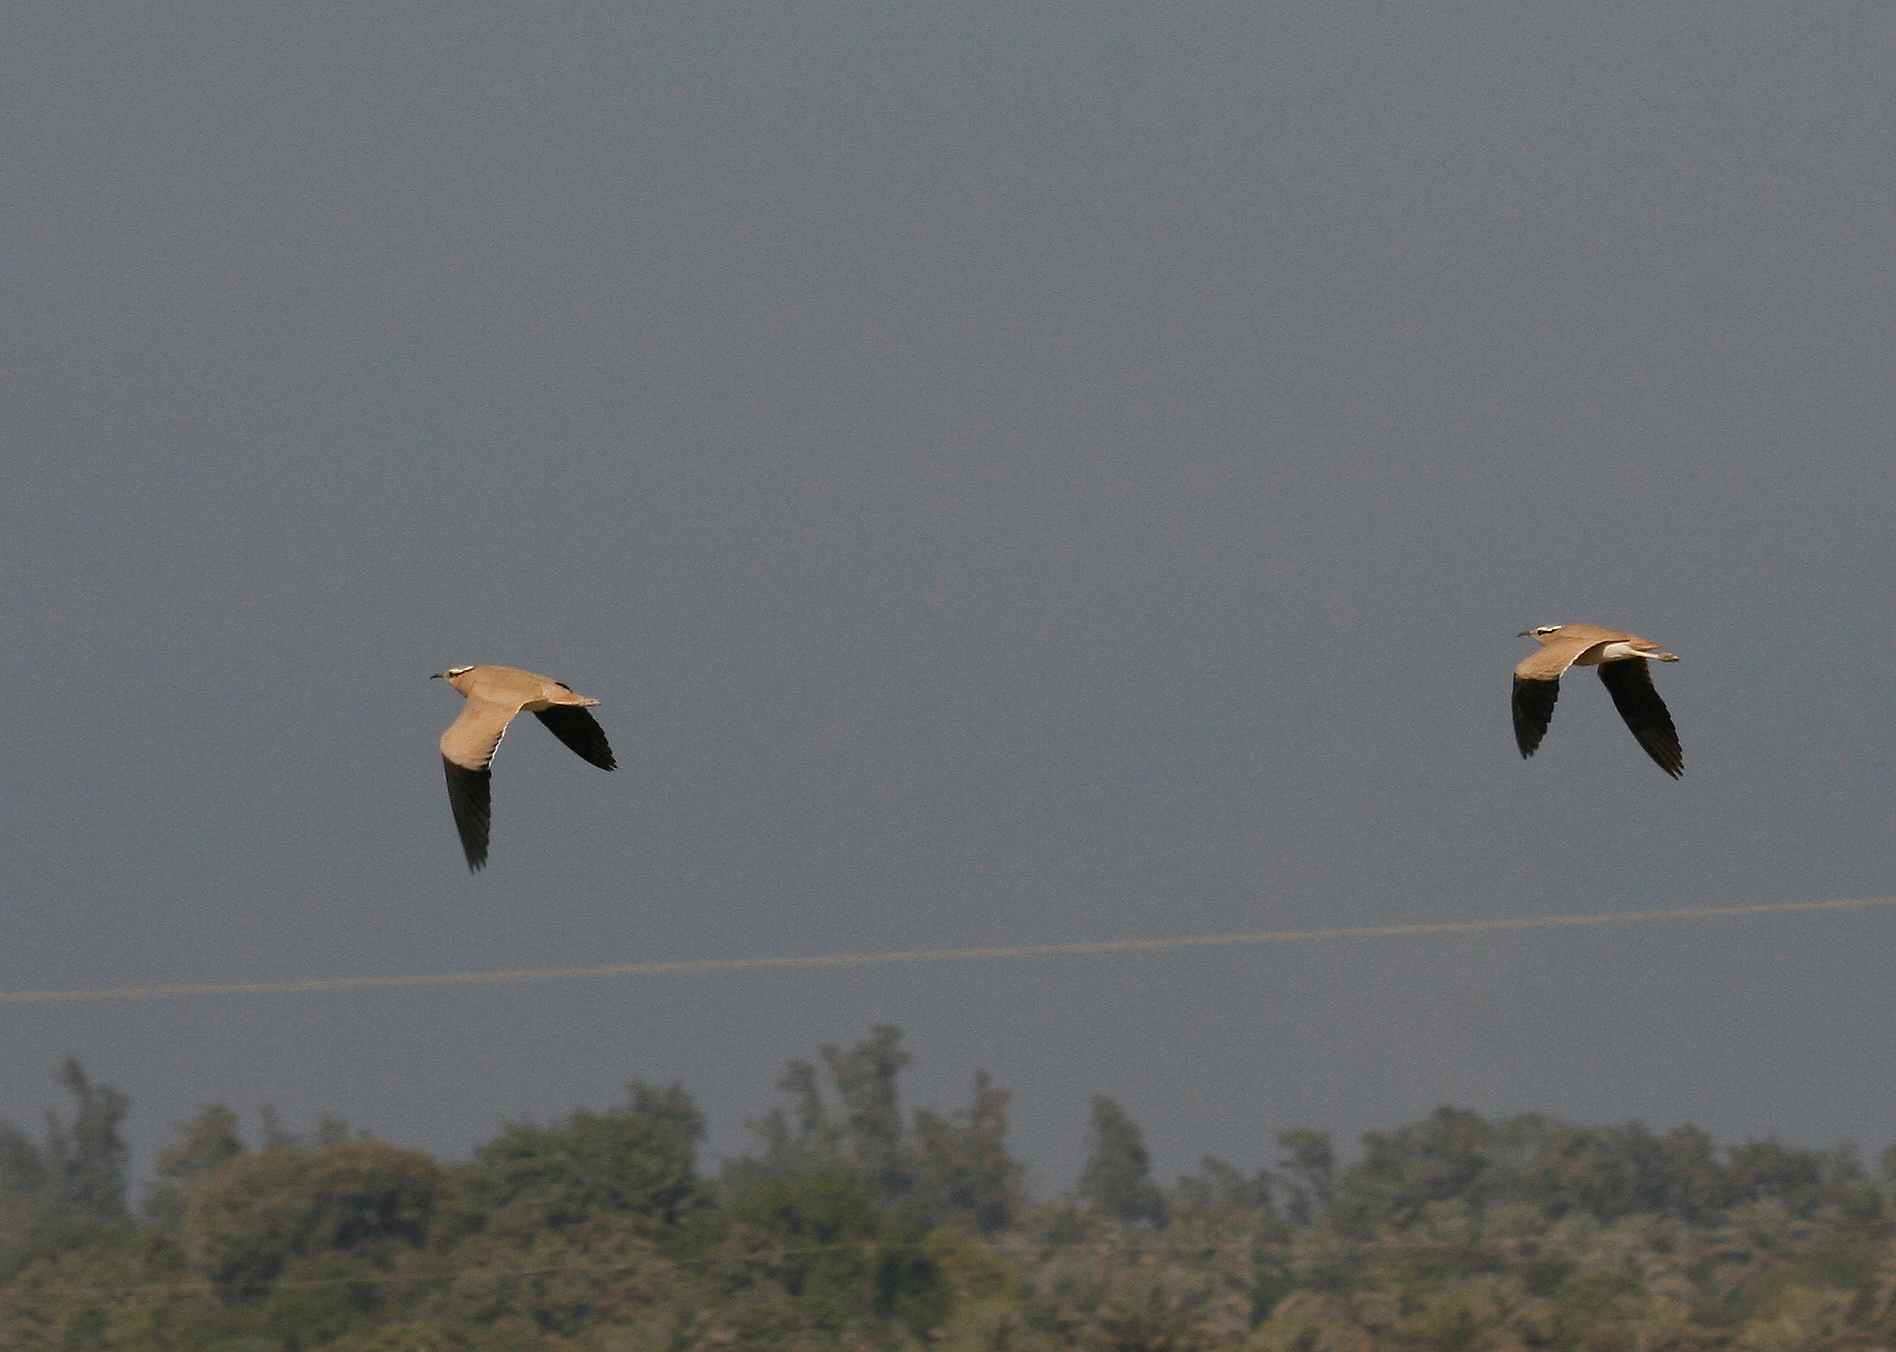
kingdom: Animalia
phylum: Chordata
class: Aves
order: Charadriiformes
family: Glareolidae
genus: Cursorius
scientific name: Cursorius cursor
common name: Cream-colored courser
